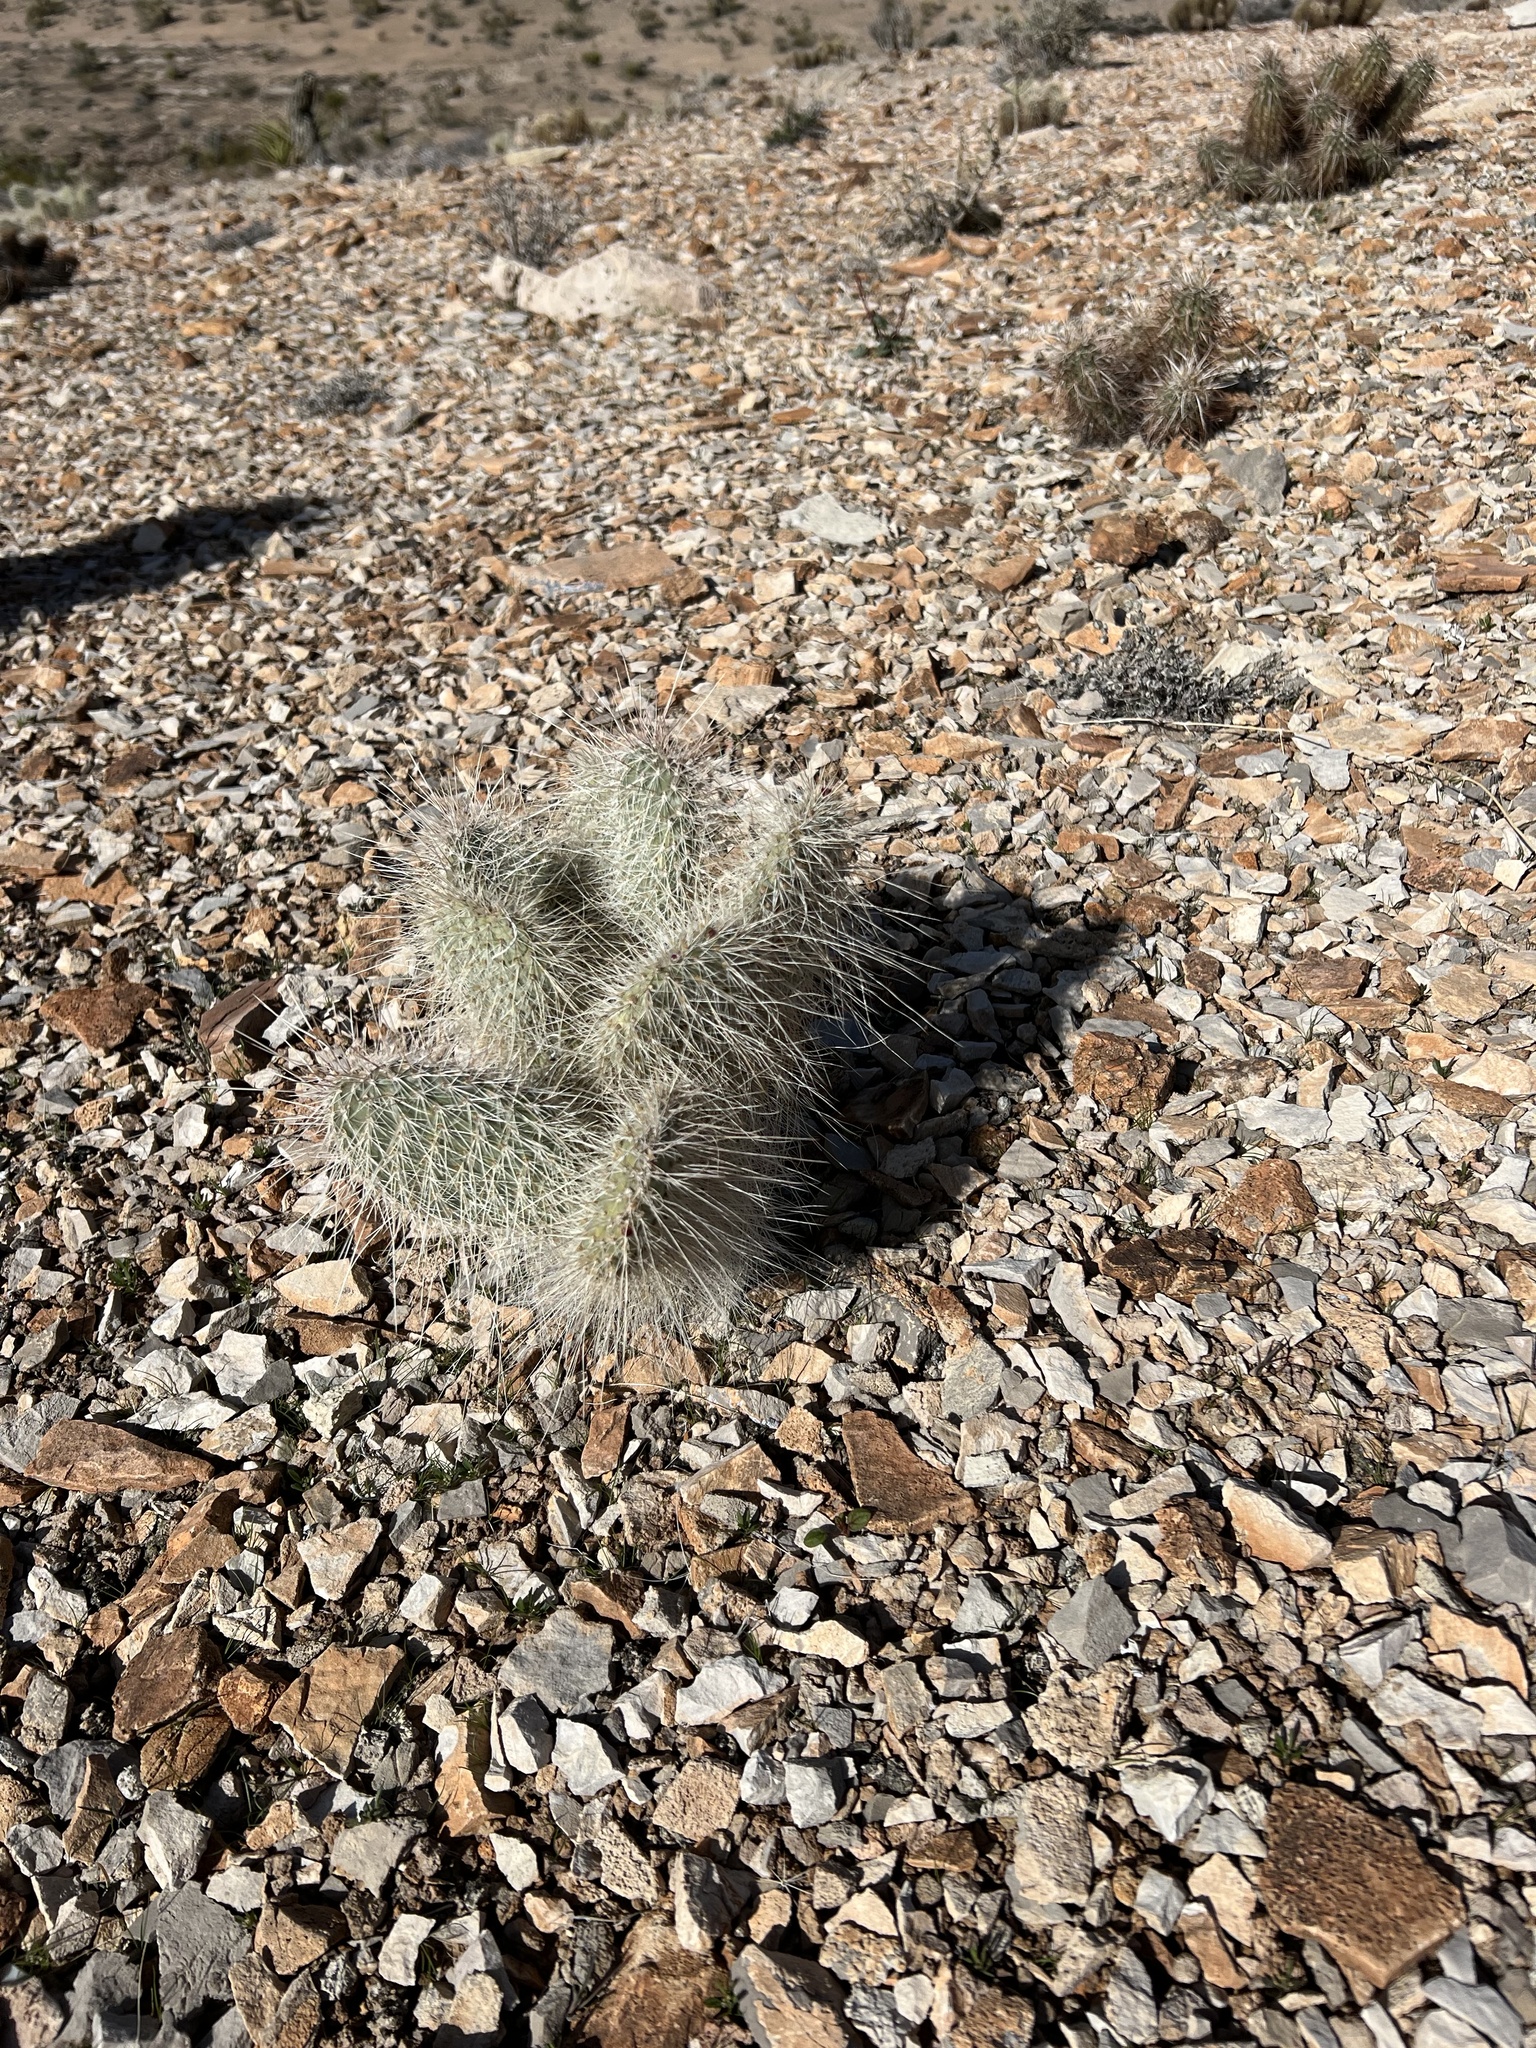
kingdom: Plantae
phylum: Tracheophyta
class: Magnoliopsida
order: Caryophyllales
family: Cactaceae
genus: Opuntia
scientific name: Opuntia polyacantha
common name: Plains prickly-pear
